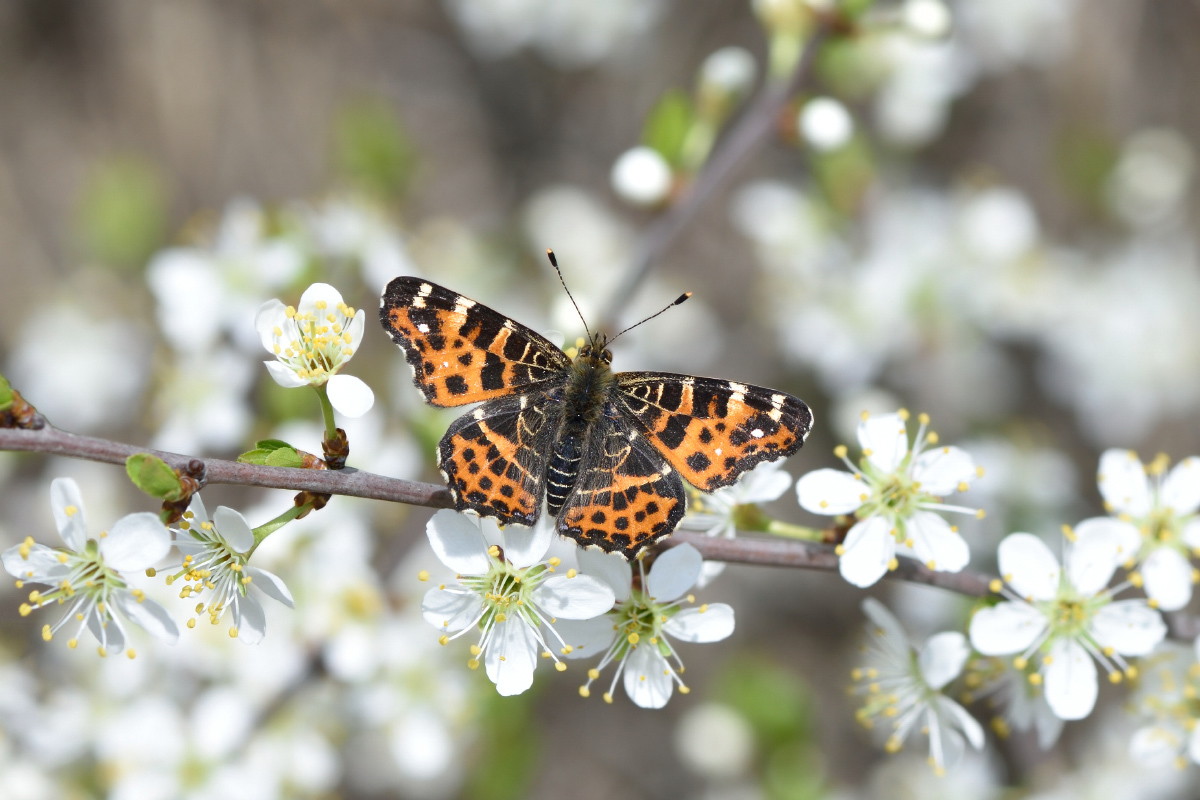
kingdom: Animalia
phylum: Arthropoda
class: Insecta
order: Lepidoptera
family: Nymphalidae
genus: Araschnia
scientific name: Araschnia levana
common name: Map butterfly
